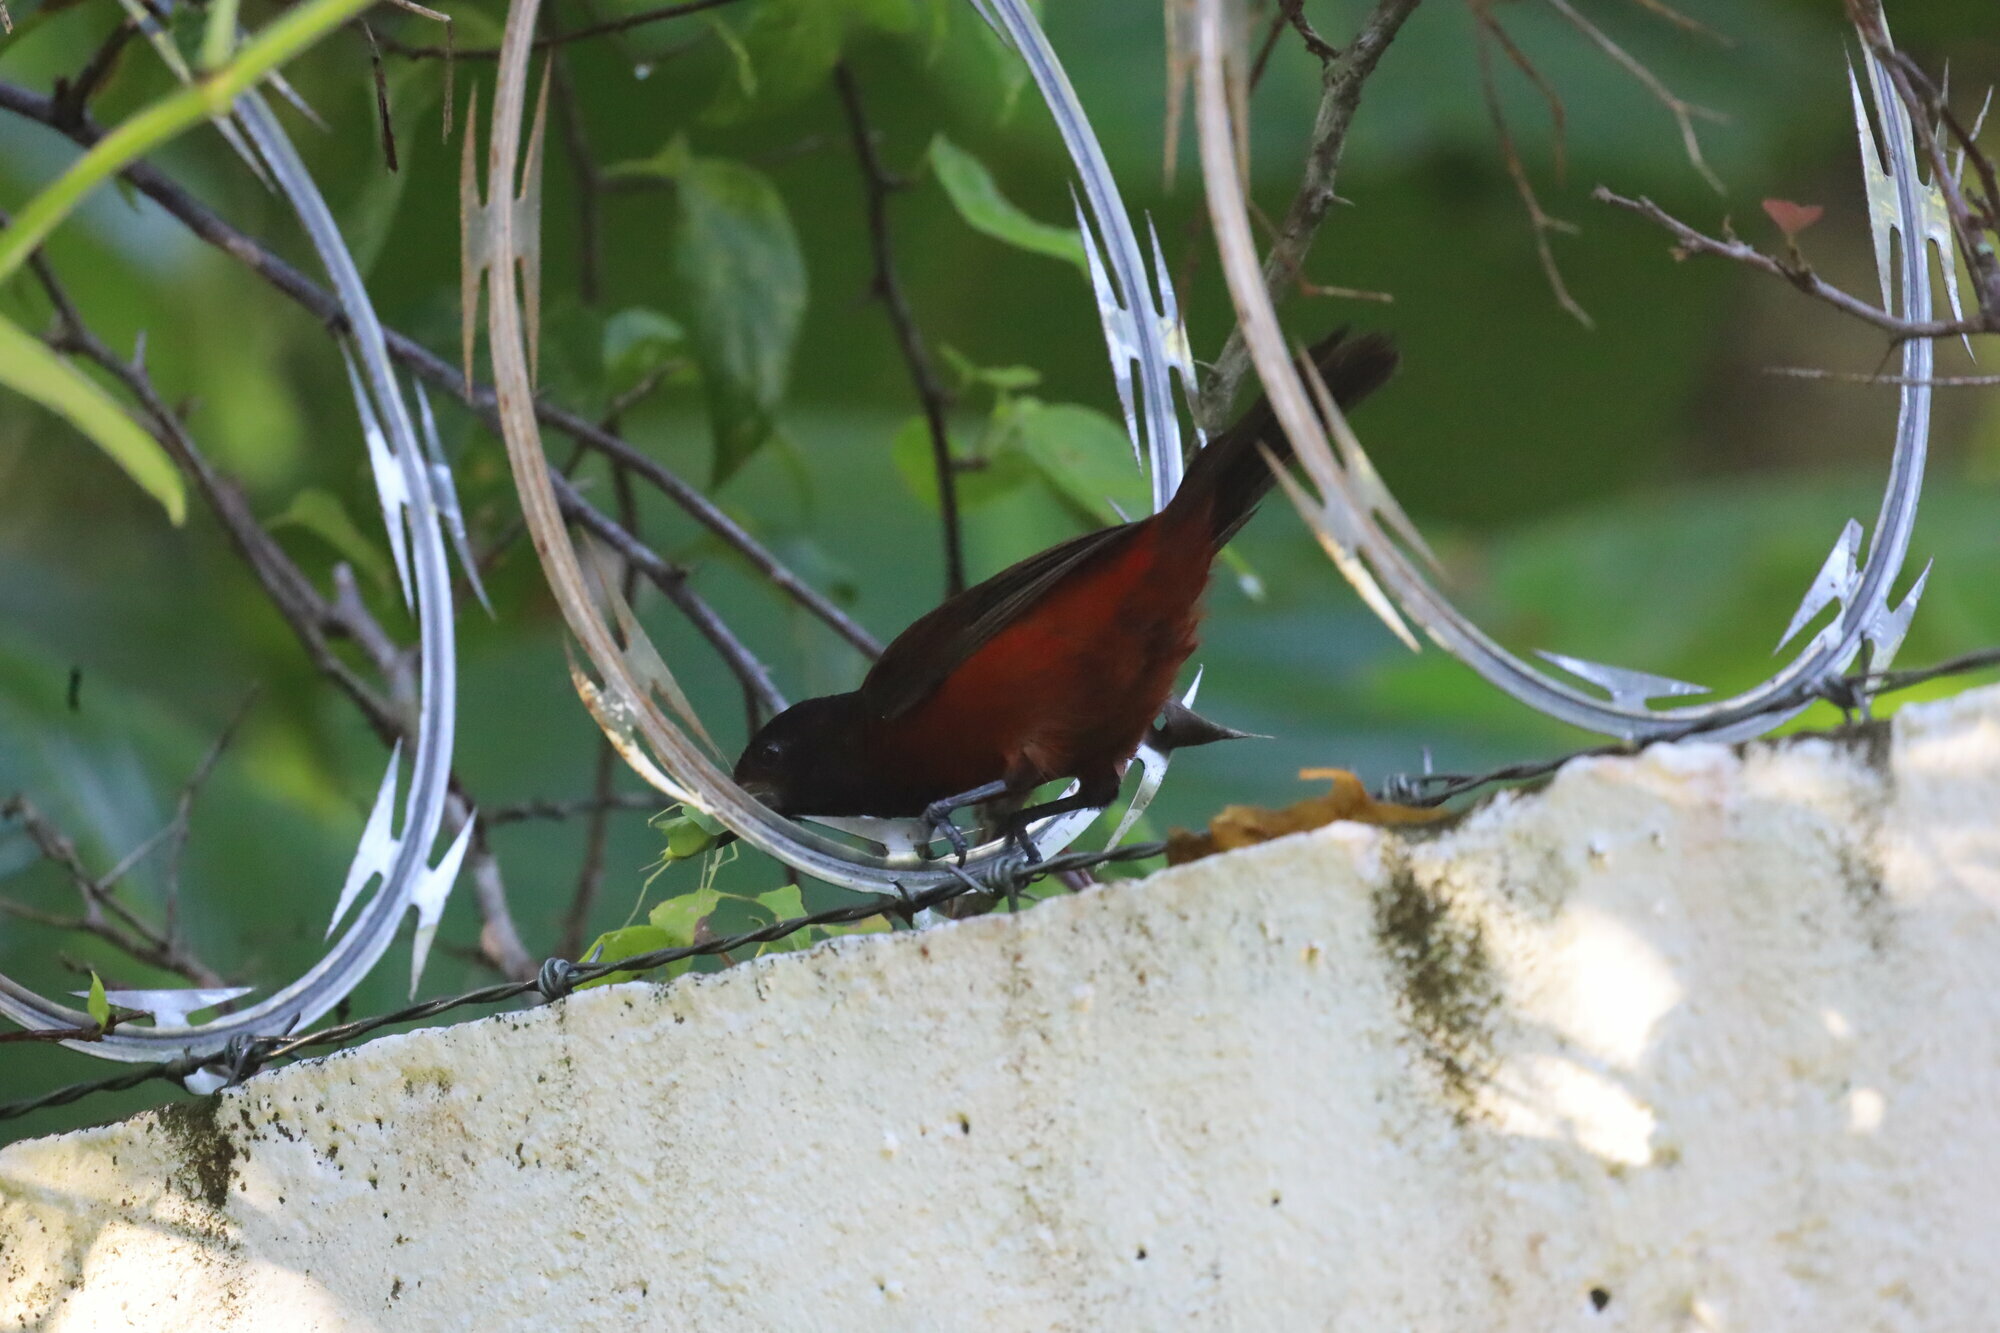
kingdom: Animalia
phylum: Chordata
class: Aves
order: Passeriformes
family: Thraupidae
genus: Ramphocelus
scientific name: Ramphocelus dimidiatus
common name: Crimson-backed tanager
